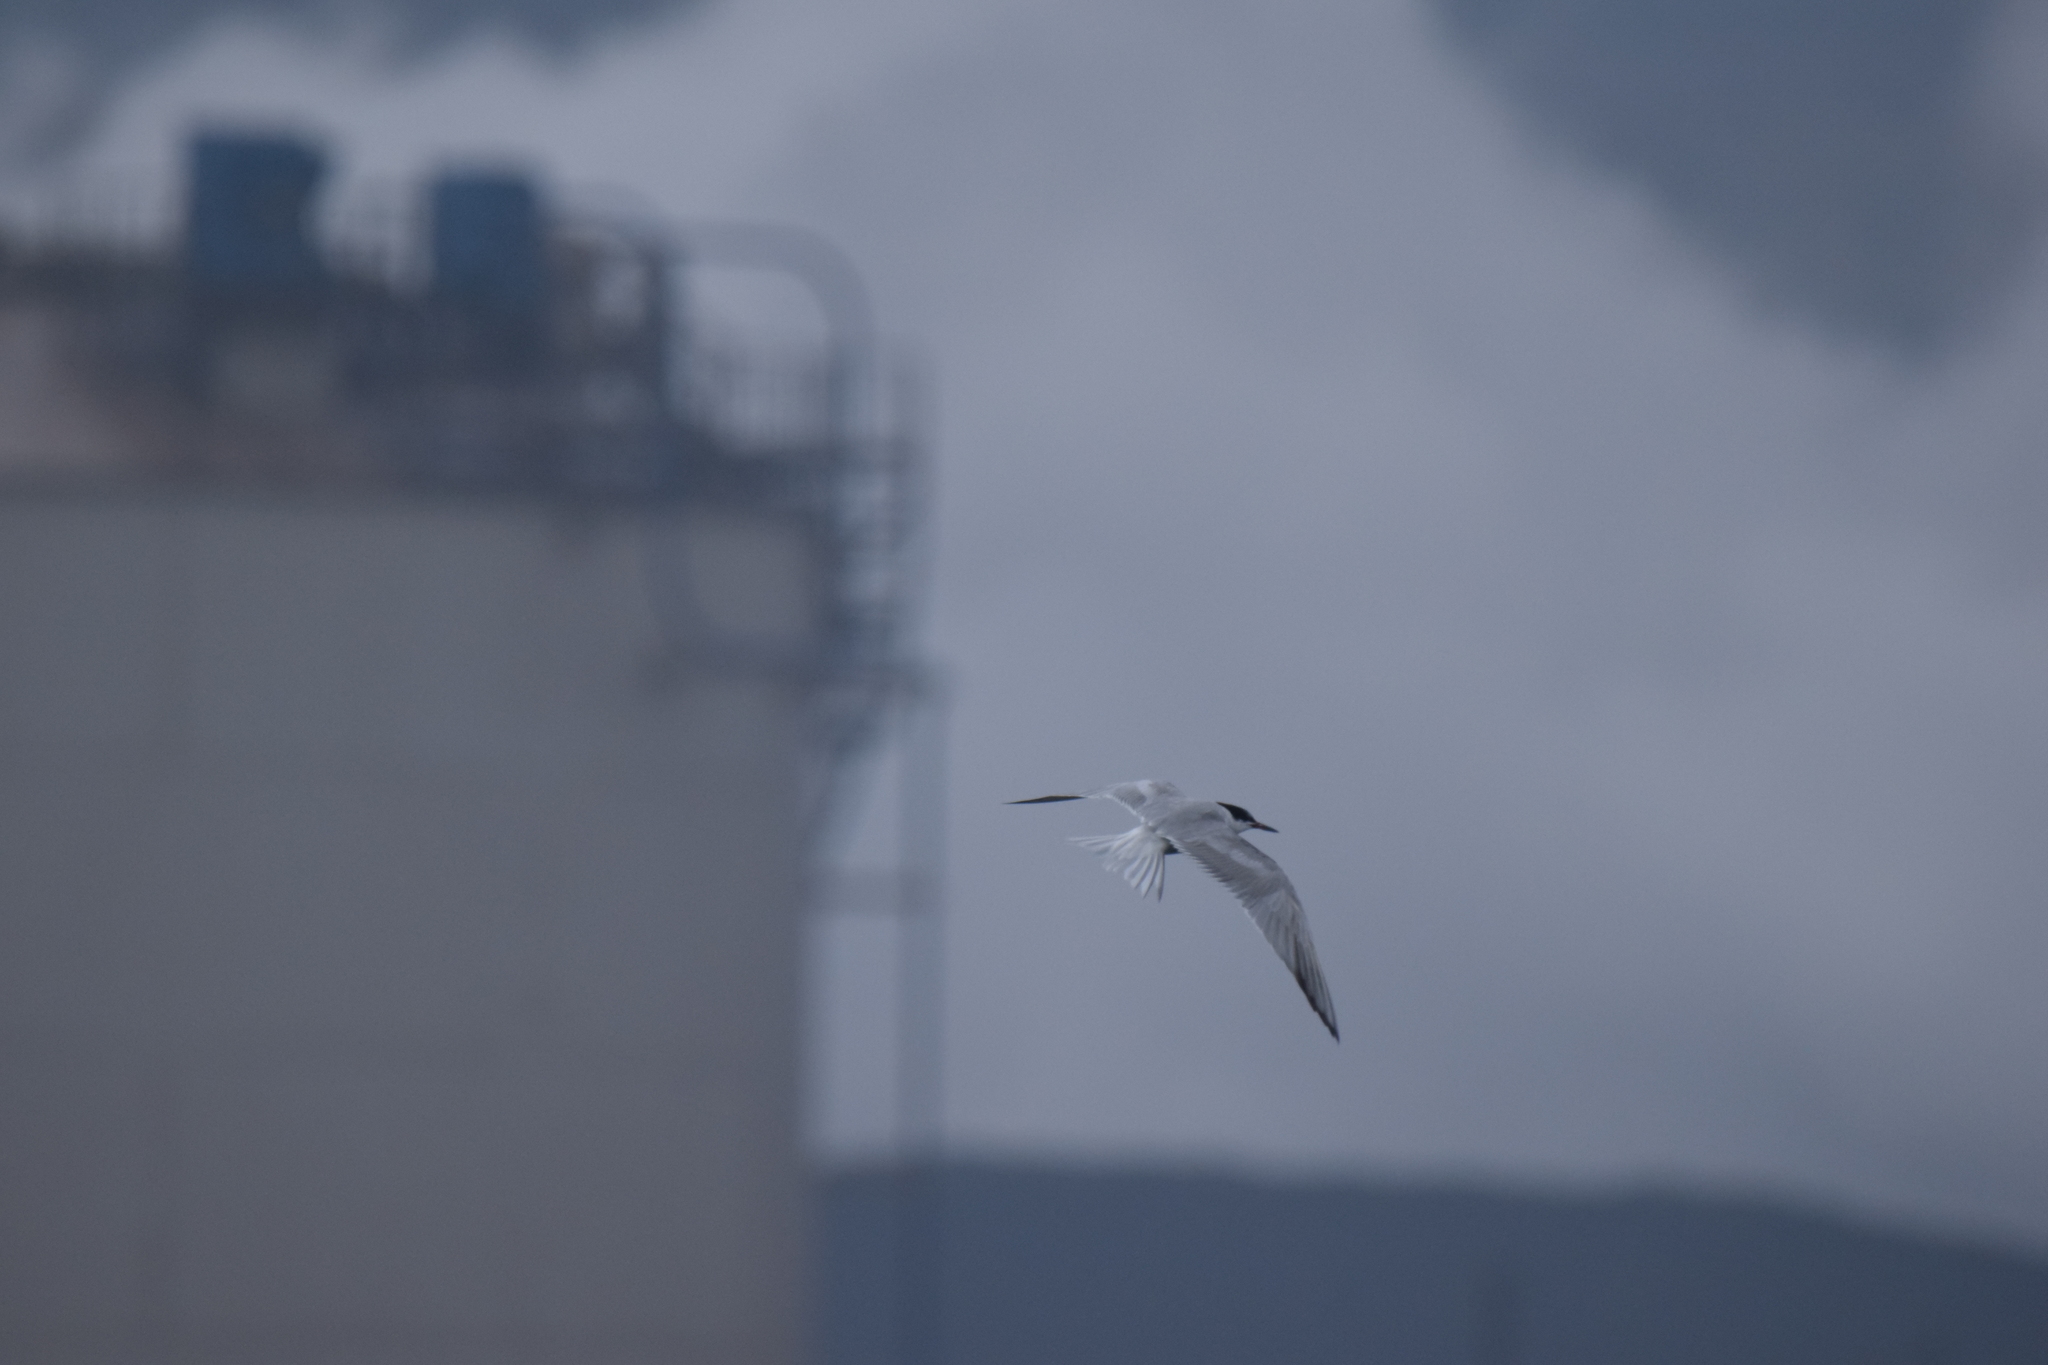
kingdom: Animalia
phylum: Chordata
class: Aves
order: Charadriiformes
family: Laridae
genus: Sterna
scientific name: Sterna hirundo
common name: Common tern
